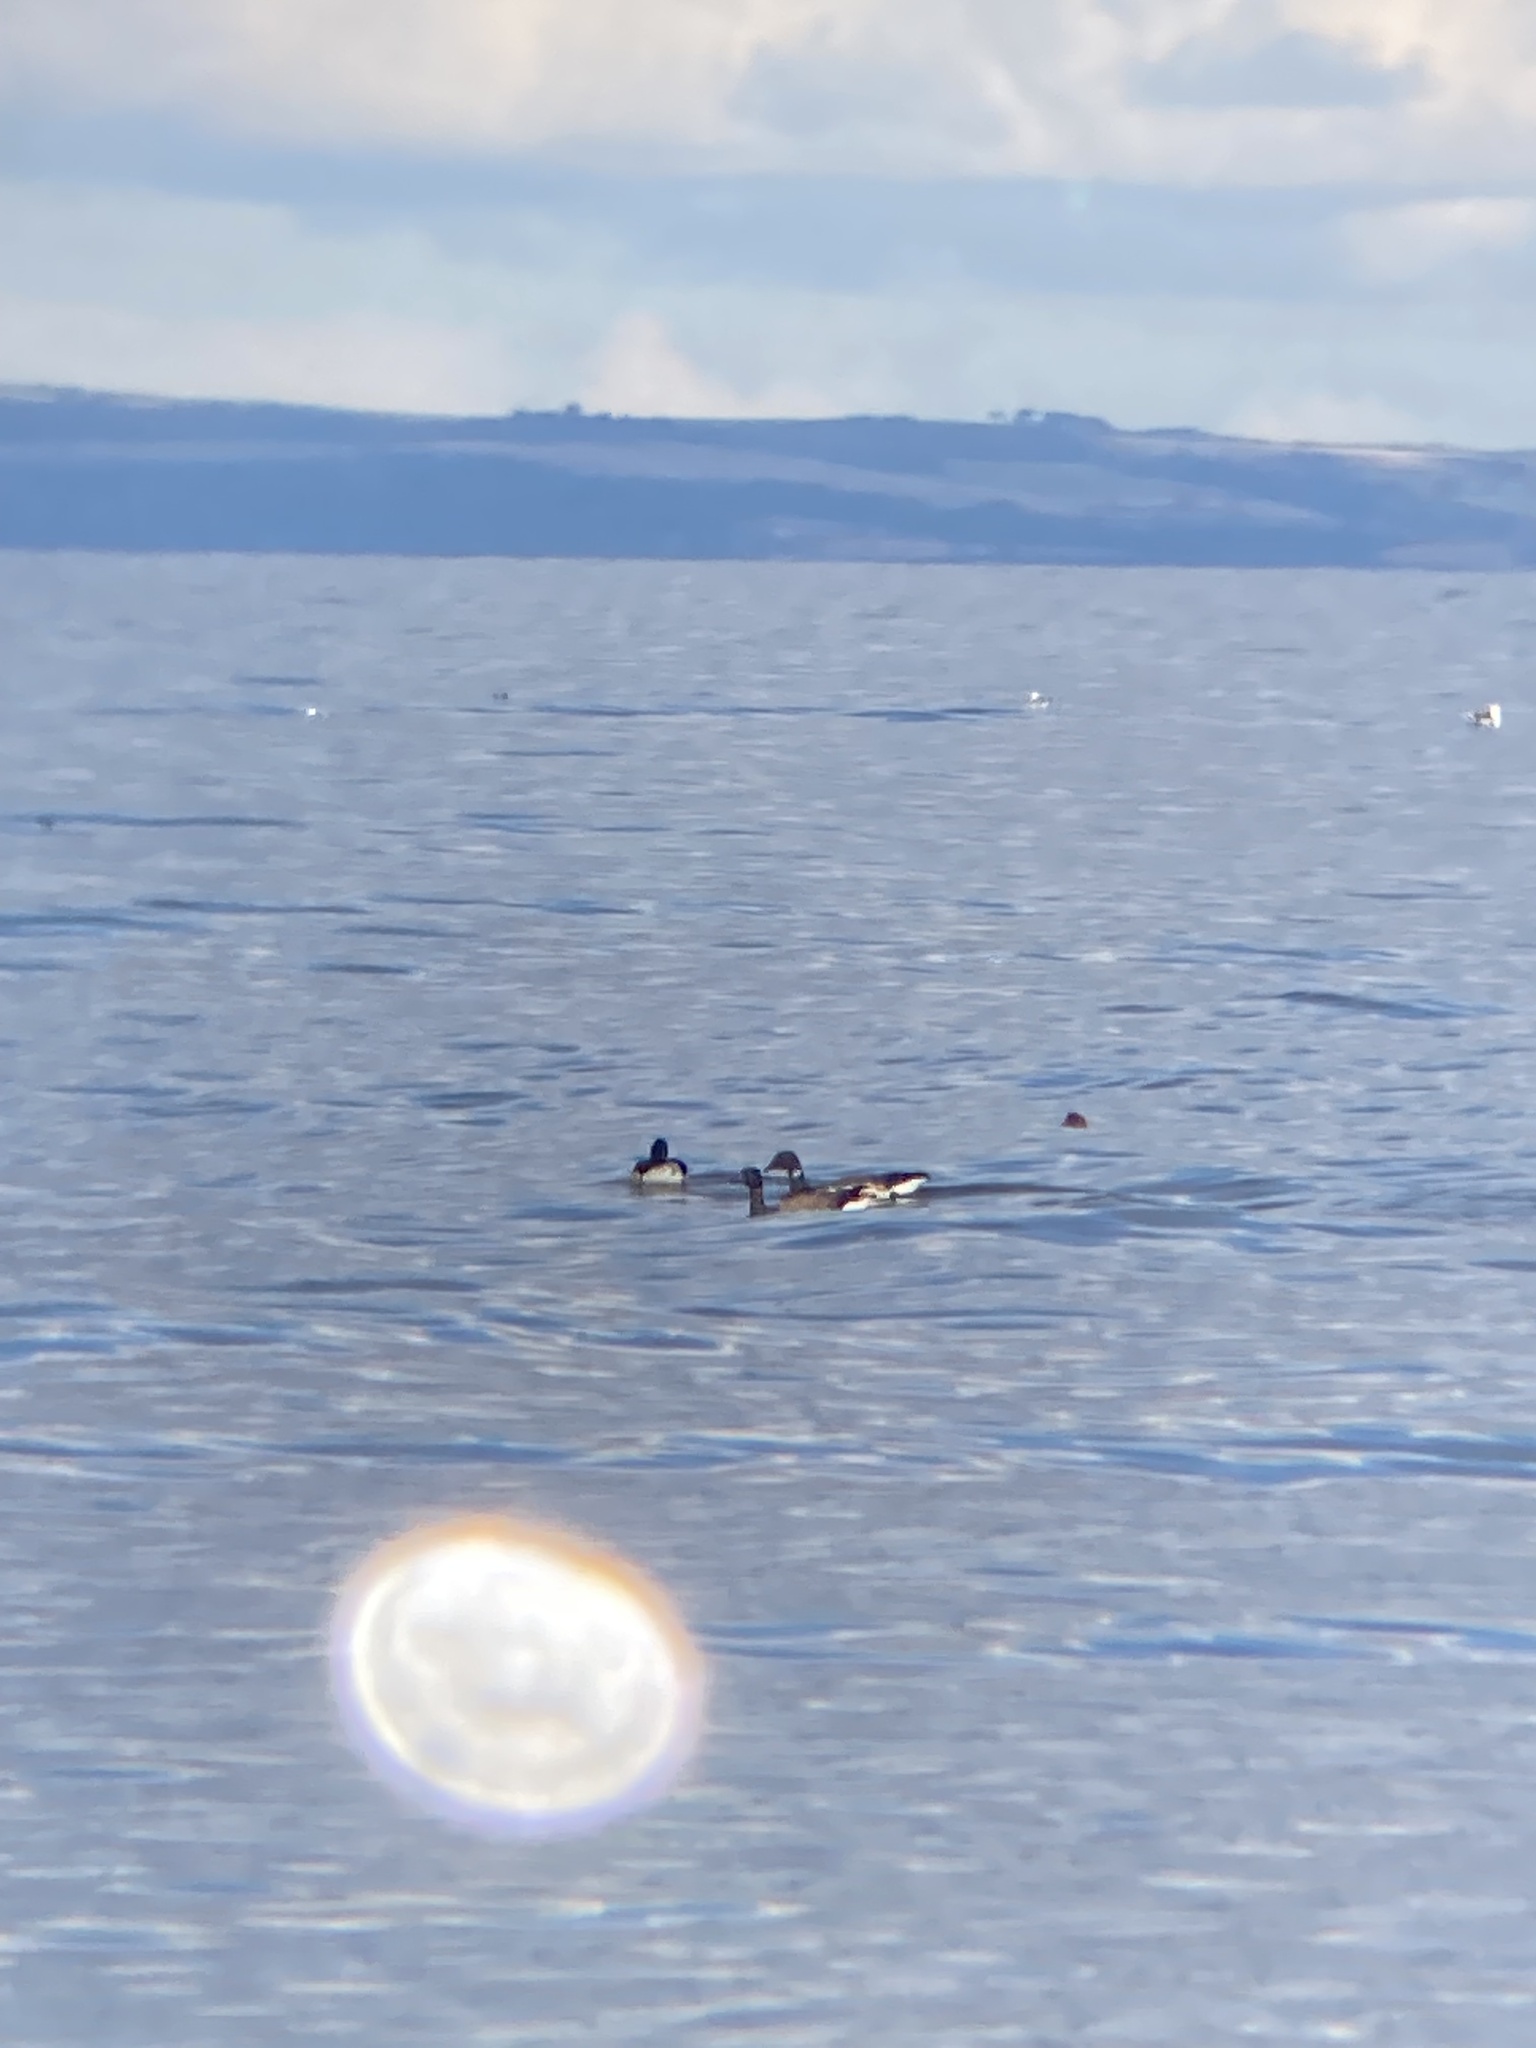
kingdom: Animalia
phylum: Chordata
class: Aves
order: Anseriformes
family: Anatidae
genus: Branta
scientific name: Branta bernicla
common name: Brant goose
